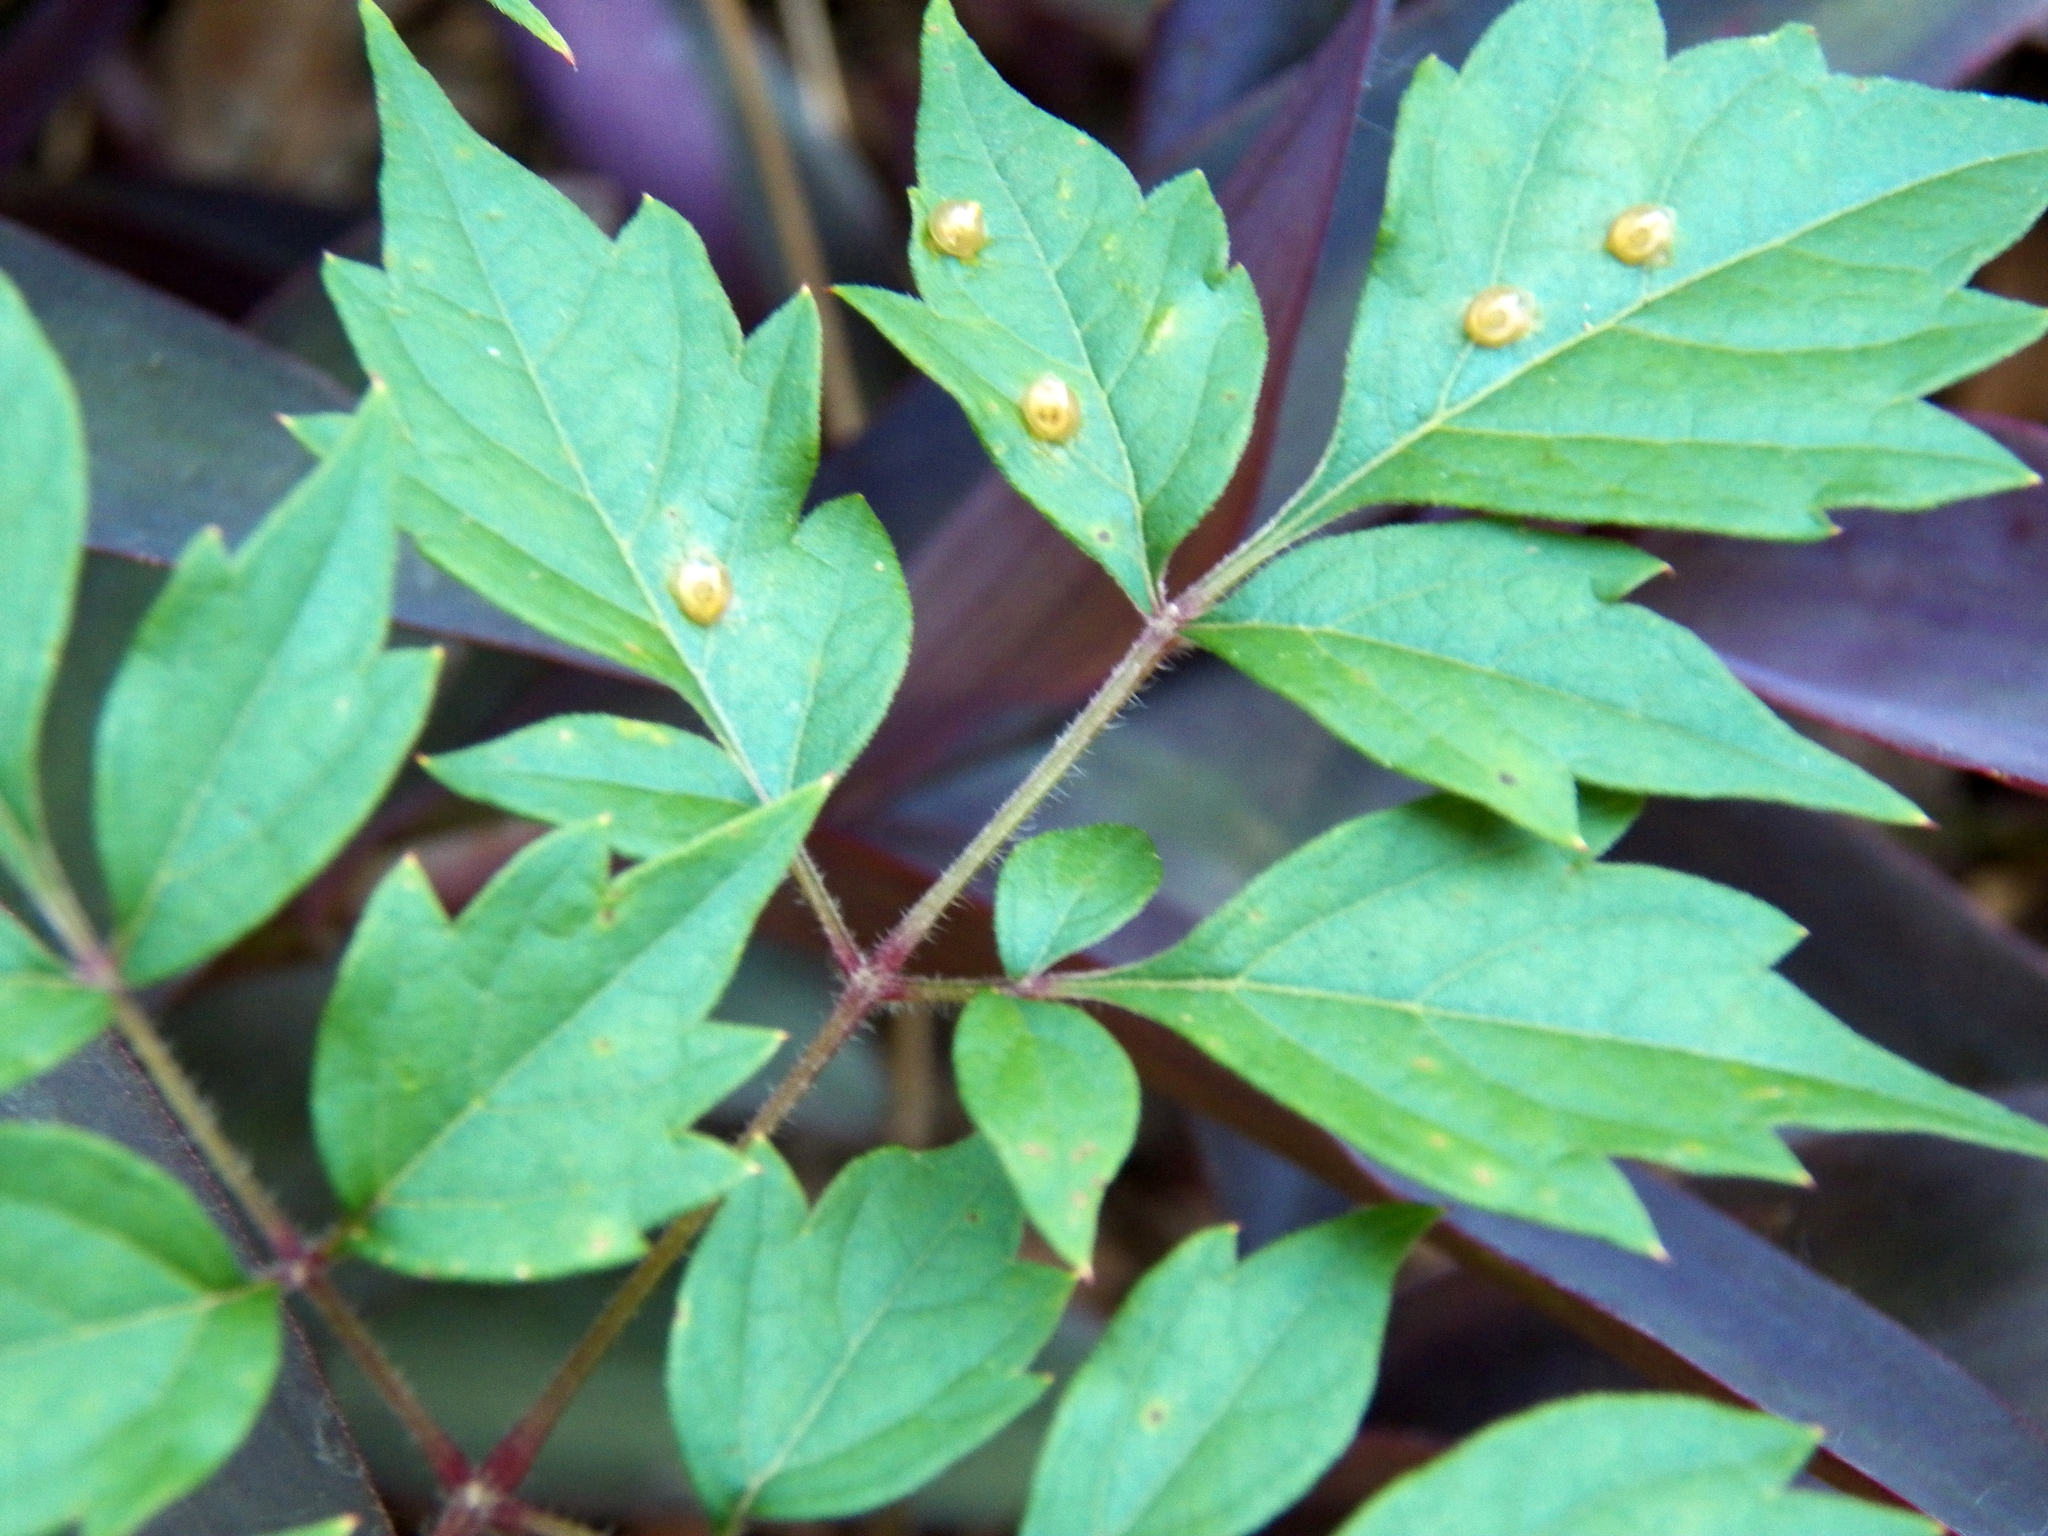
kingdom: Plantae
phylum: Tracheophyta
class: Magnoliopsida
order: Vitales
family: Vitaceae
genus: Nekemias
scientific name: Nekemias arborea
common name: Peppervine
